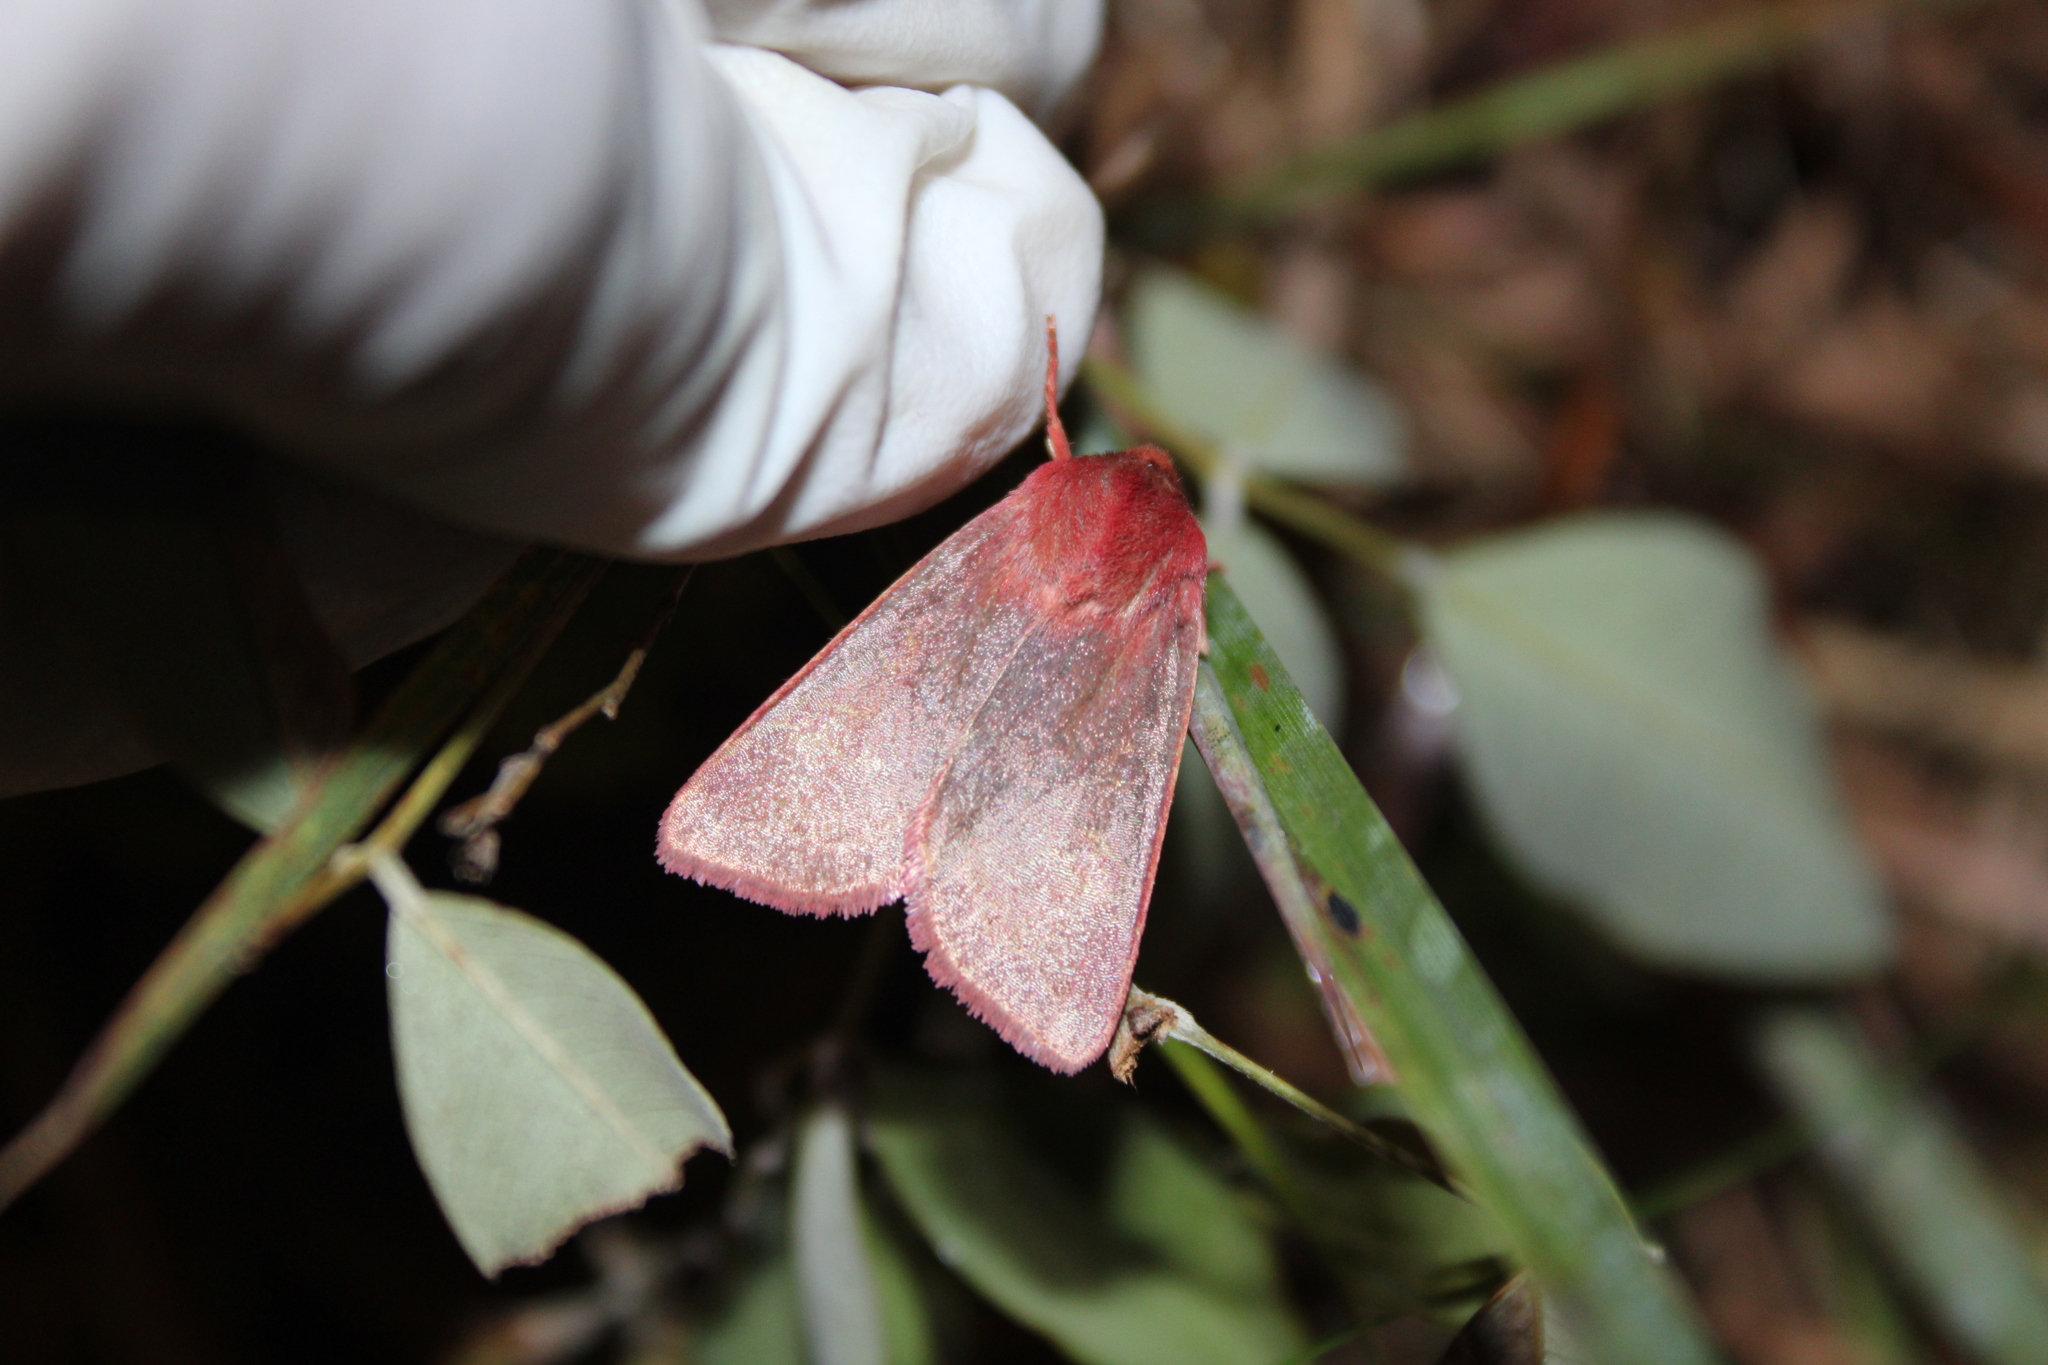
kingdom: Animalia
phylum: Arthropoda
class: Insecta
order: Lepidoptera
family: Noctuidae
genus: Psectraglaea
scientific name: Psectraglaea carnosa
